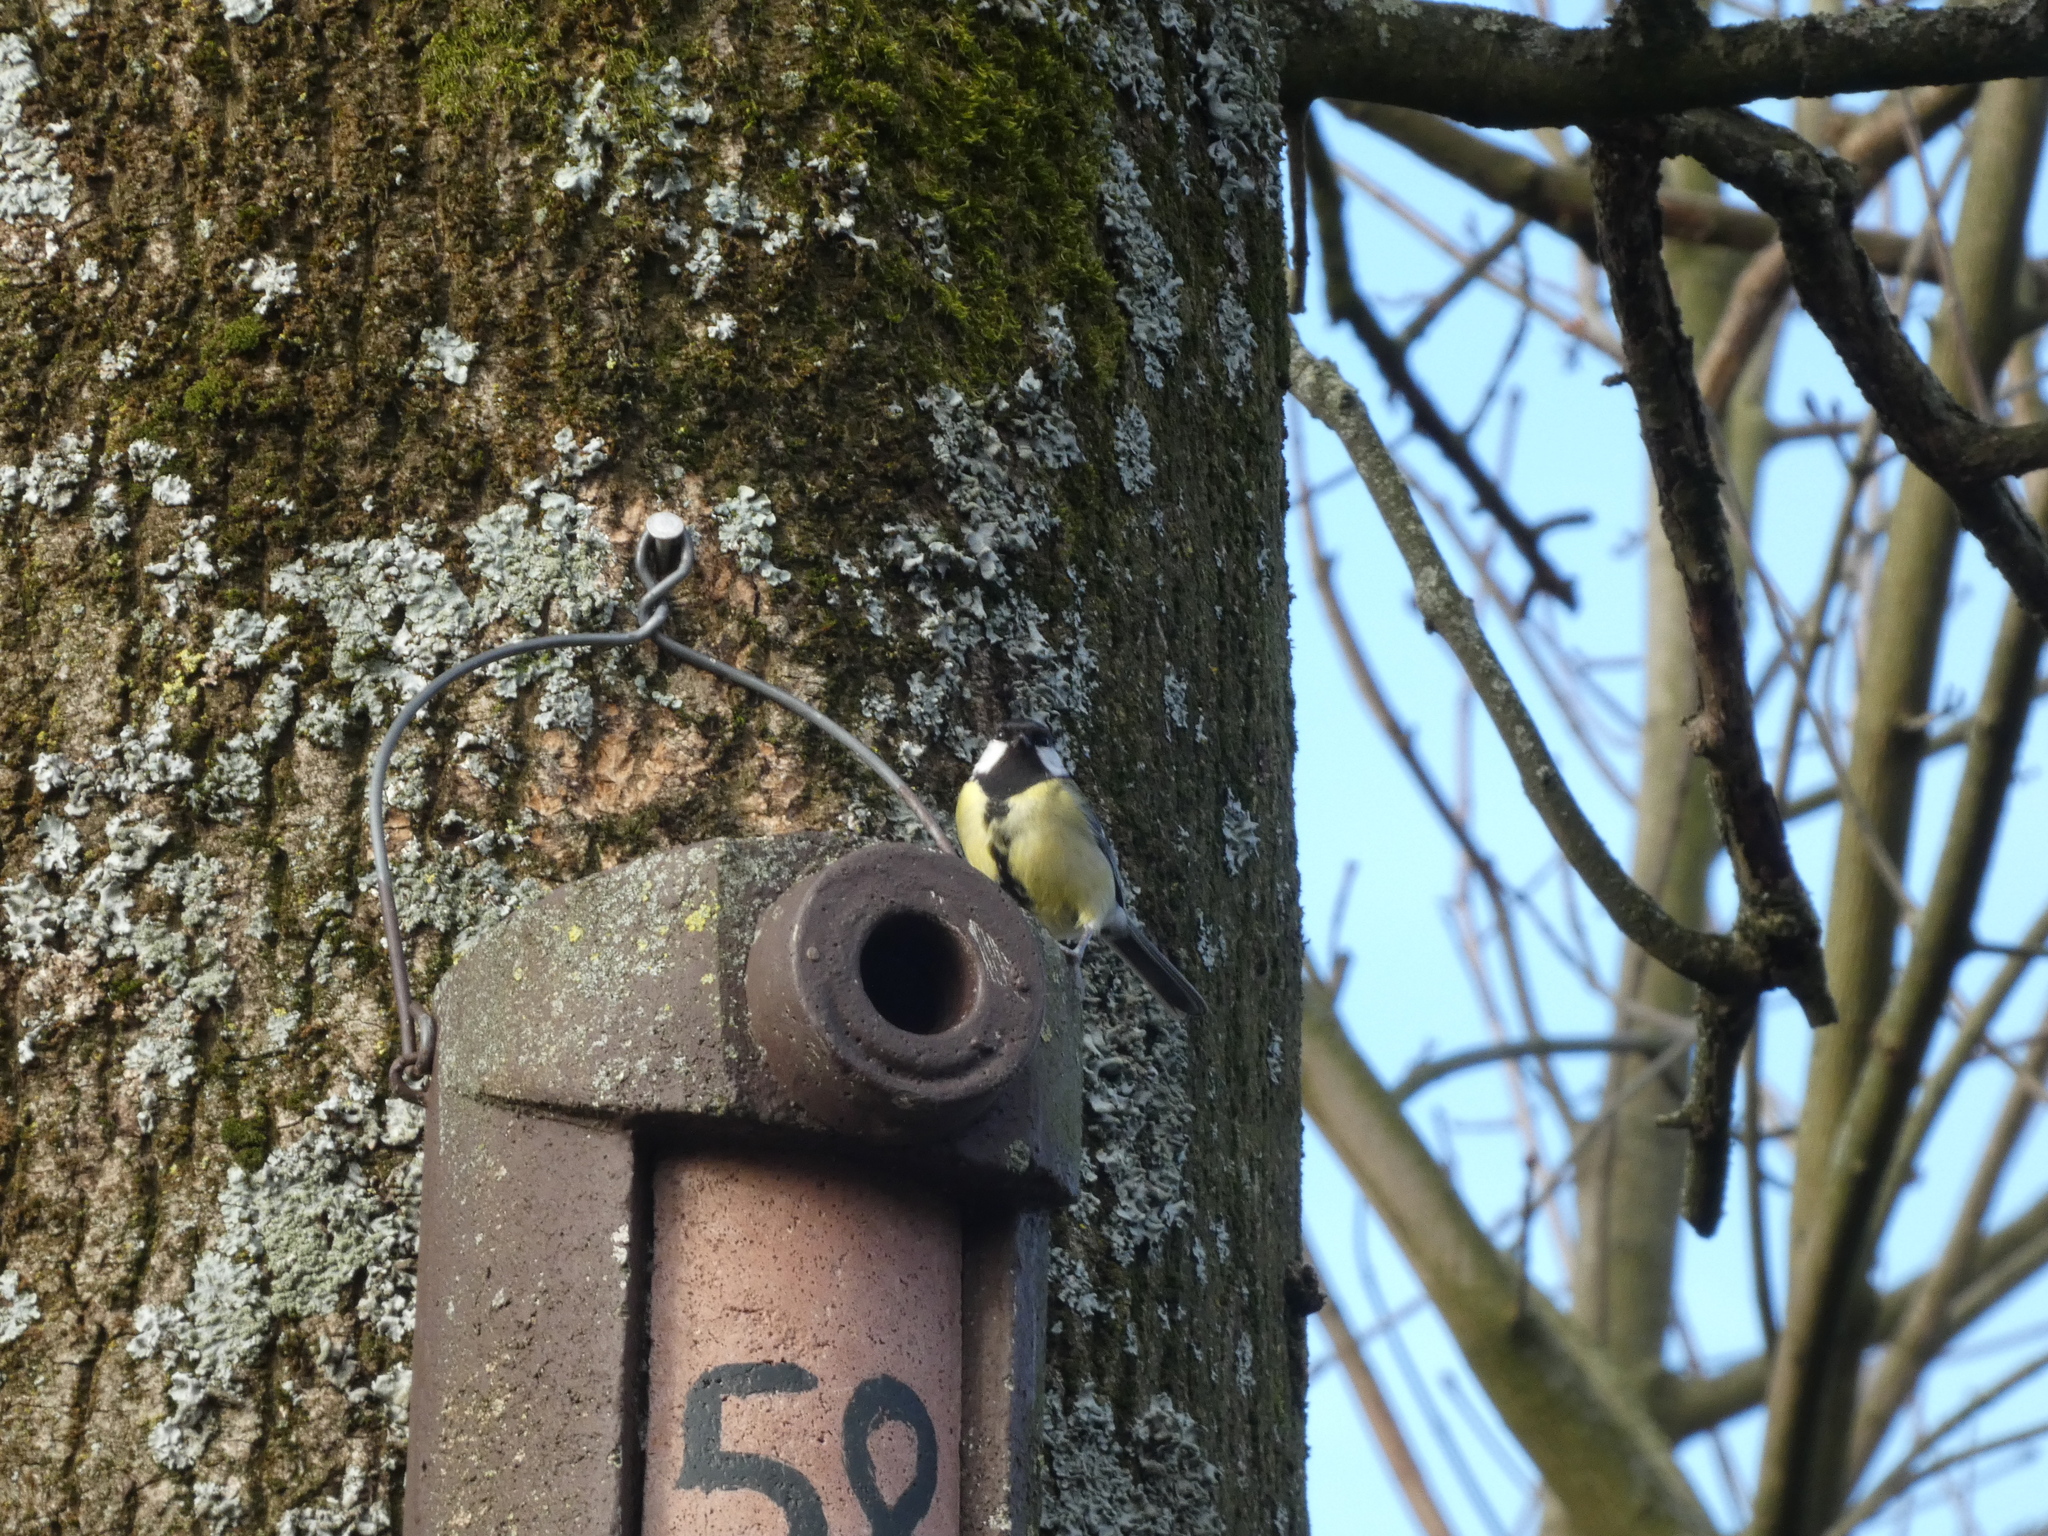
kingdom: Animalia
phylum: Chordata
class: Aves
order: Passeriformes
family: Paridae
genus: Parus
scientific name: Parus major
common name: Great tit
